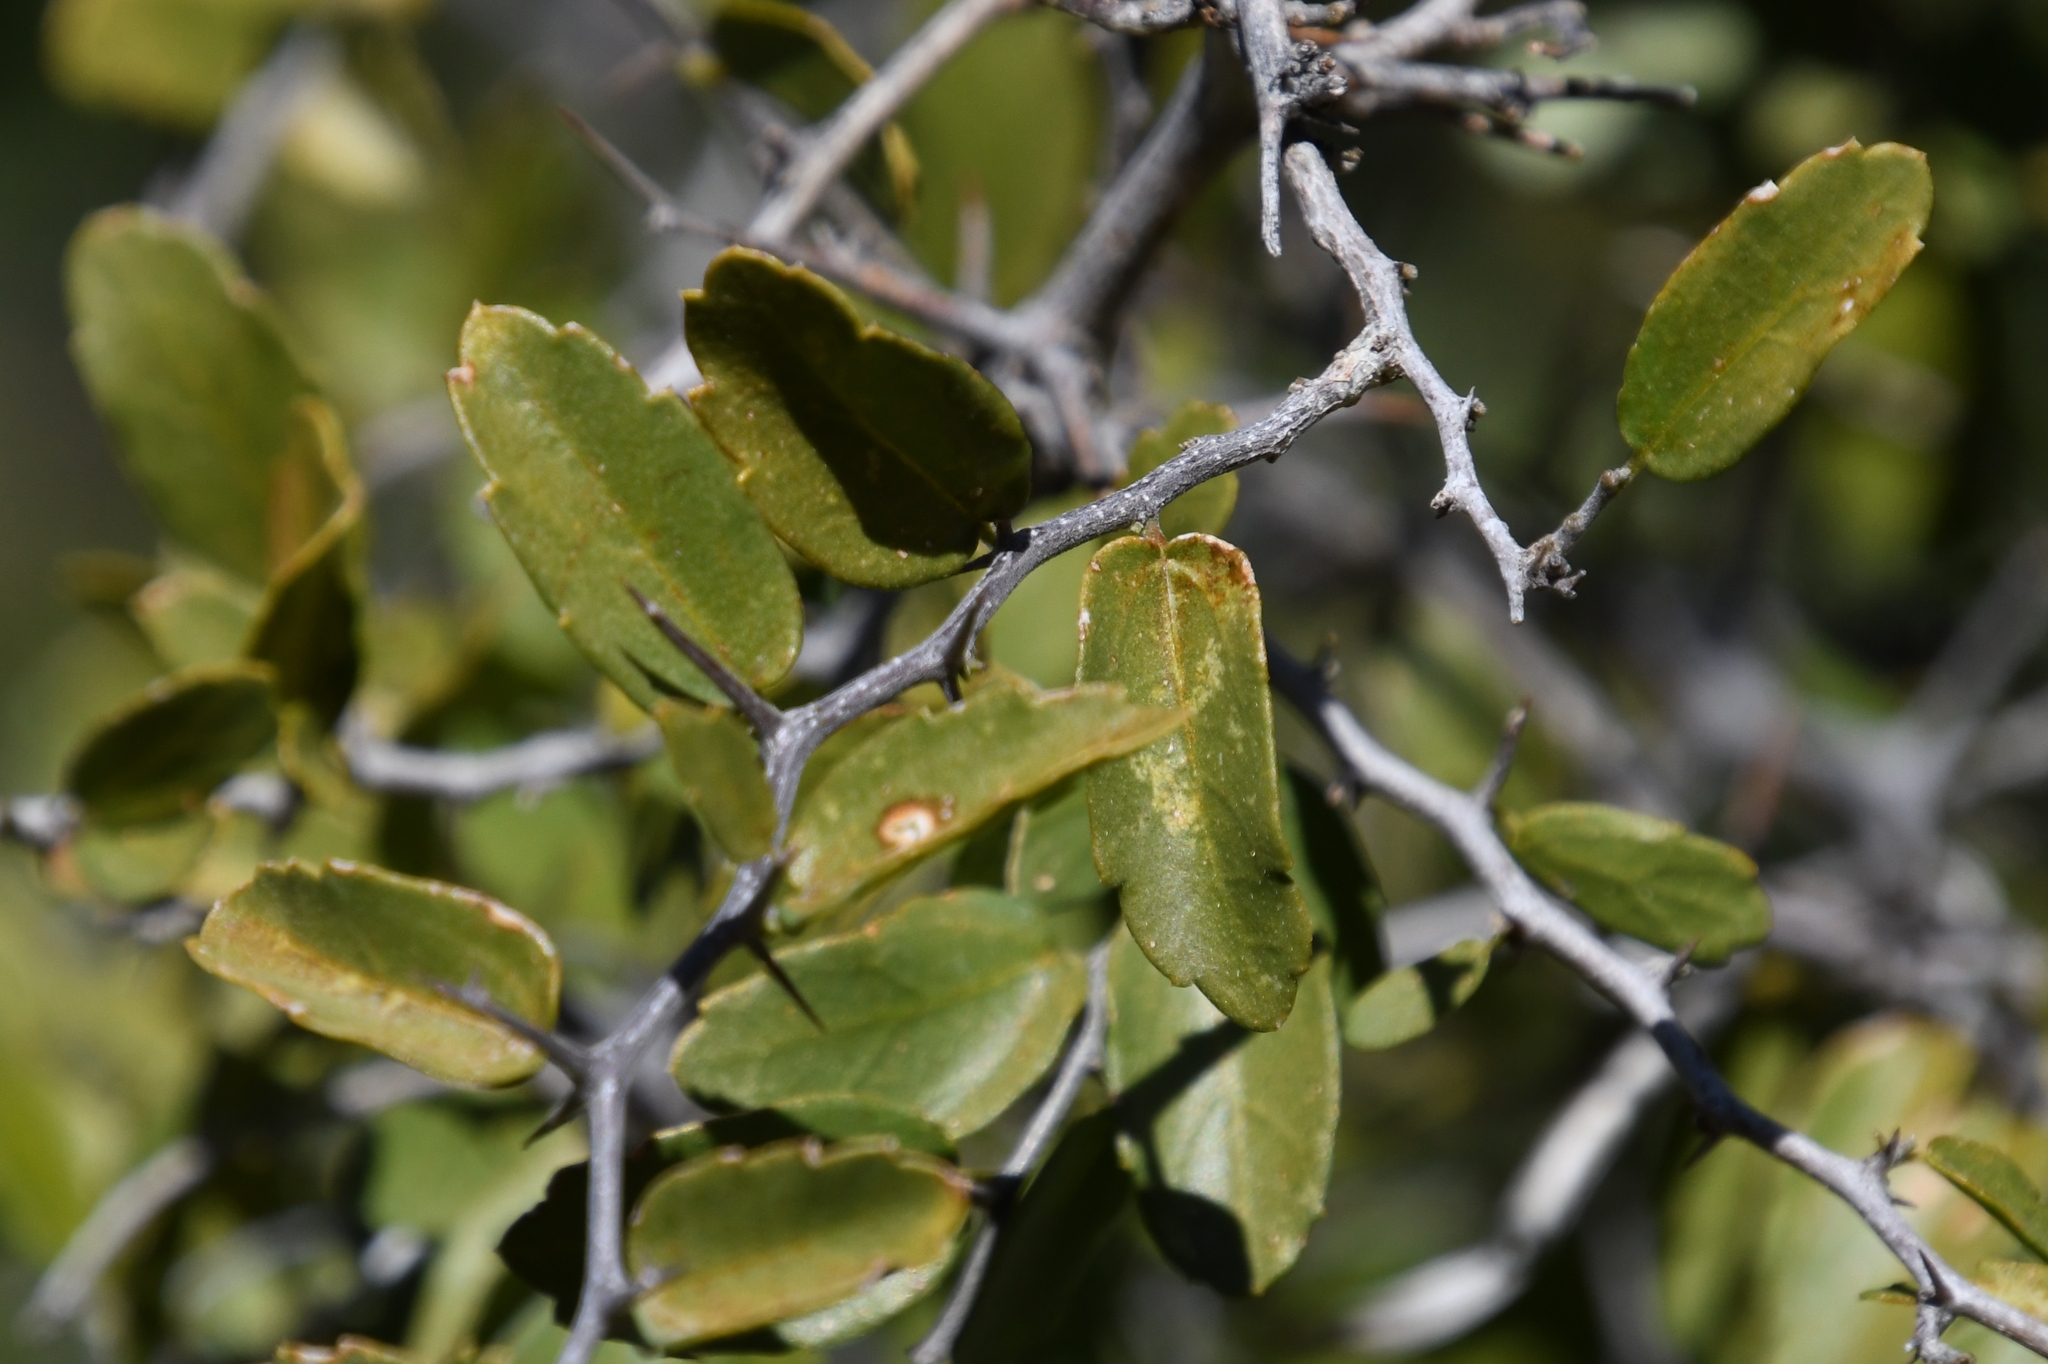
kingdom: Plantae
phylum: Tracheophyta
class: Magnoliopsida
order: Rosales
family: Cannabaceae
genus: Celtis
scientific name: Celtis pallida
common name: Desert hackberry
